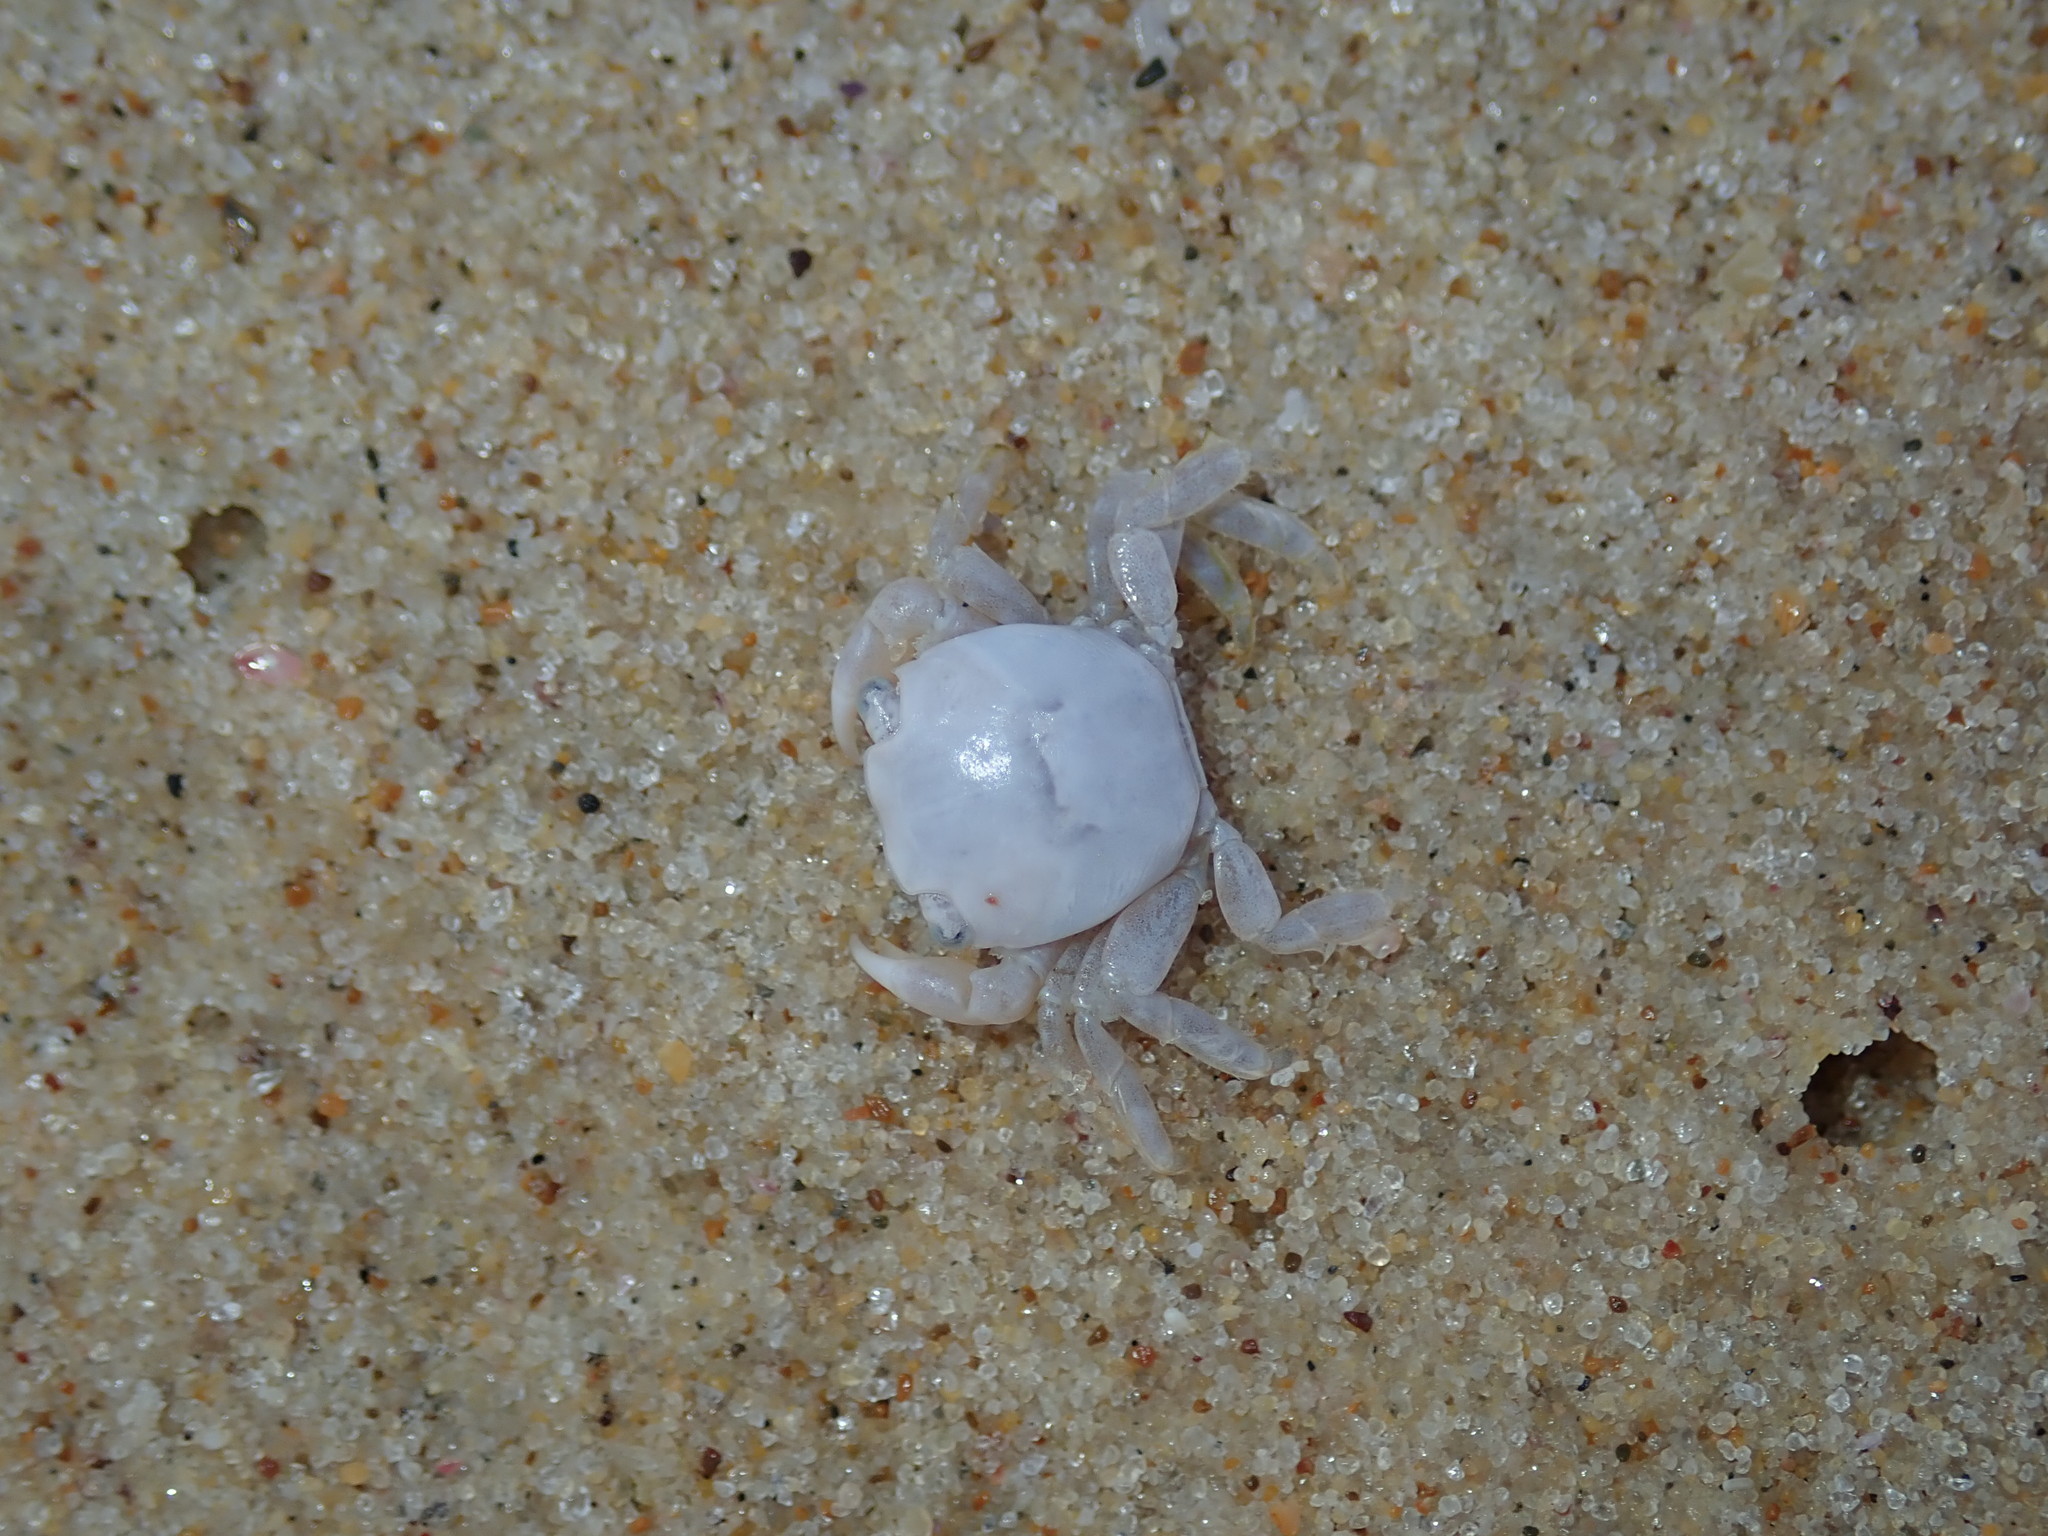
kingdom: Animalia
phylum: Arthropoda
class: Malacostraca
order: Decapoda
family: Grapsidae
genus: Planes
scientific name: Planes minutus
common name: Gulf weed crab
